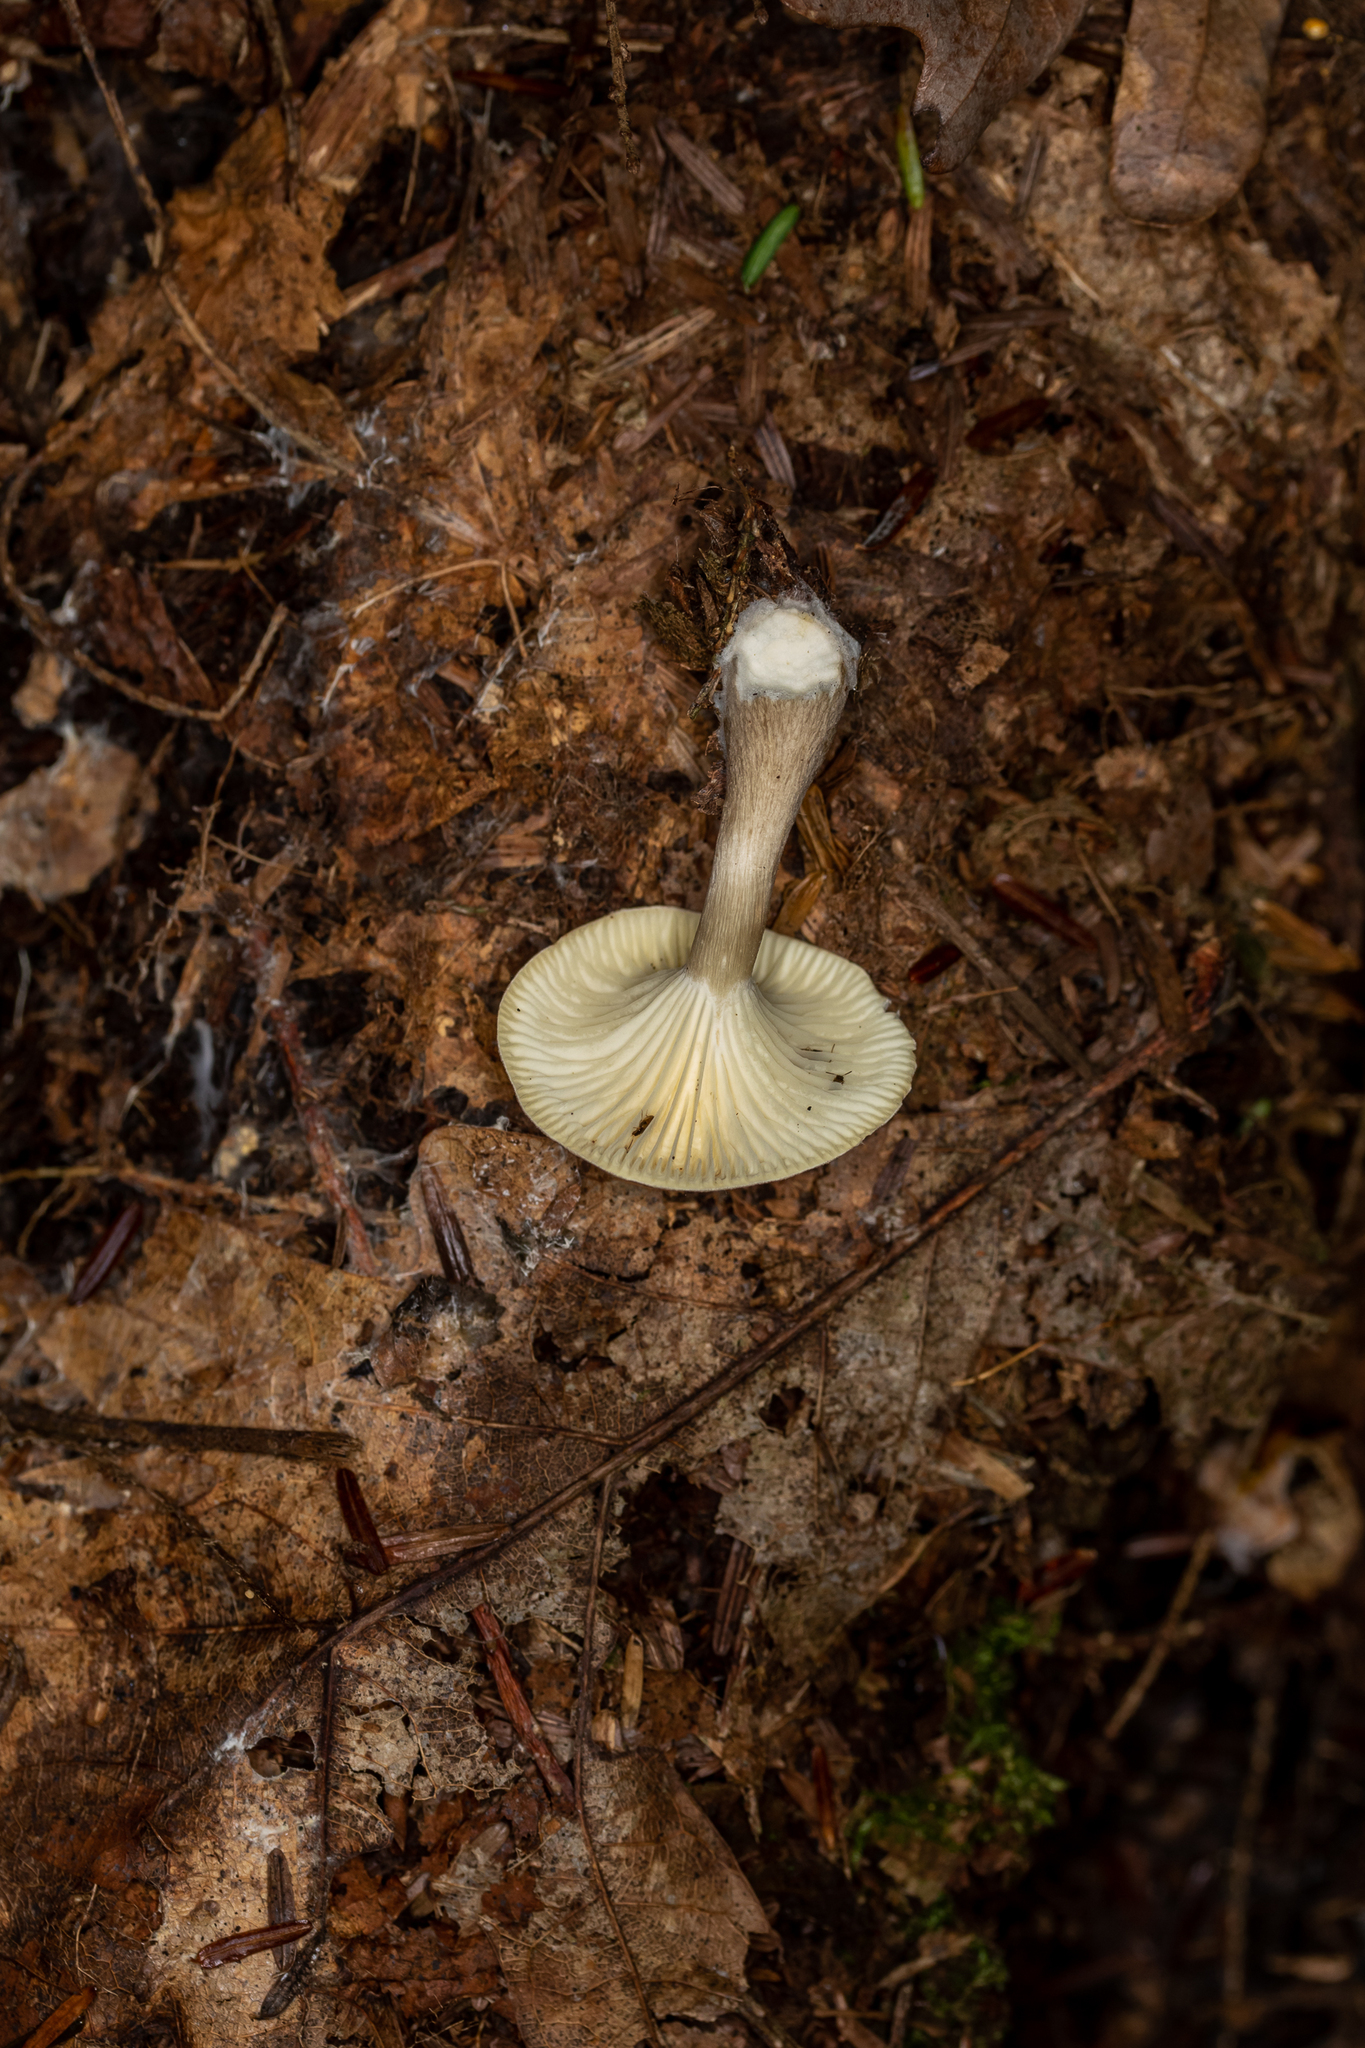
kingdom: Fungi
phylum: Basidiomycota
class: Agaricomycetes
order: Agaricales
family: Hygrophoraceae
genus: Ampulloclitocybe
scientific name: Ampulloclitocybe clavipes
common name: Club foot
